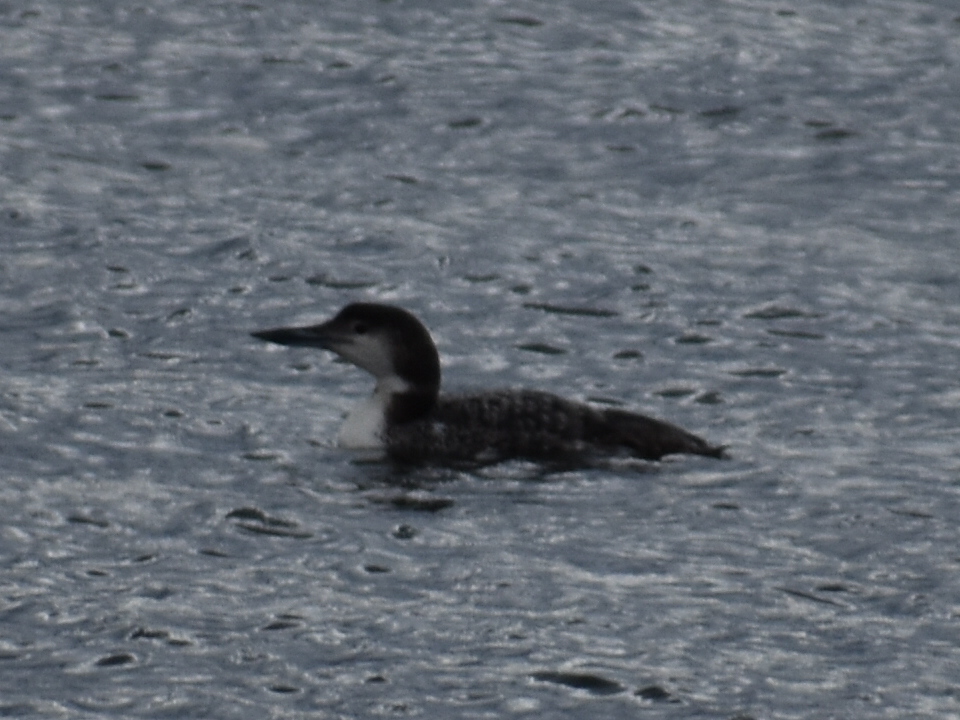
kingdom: Animalia
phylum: Chordata
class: Aves
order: Gaviiformes
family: Gaviidae
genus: Gavia
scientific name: Gavia immer
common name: Common loon
